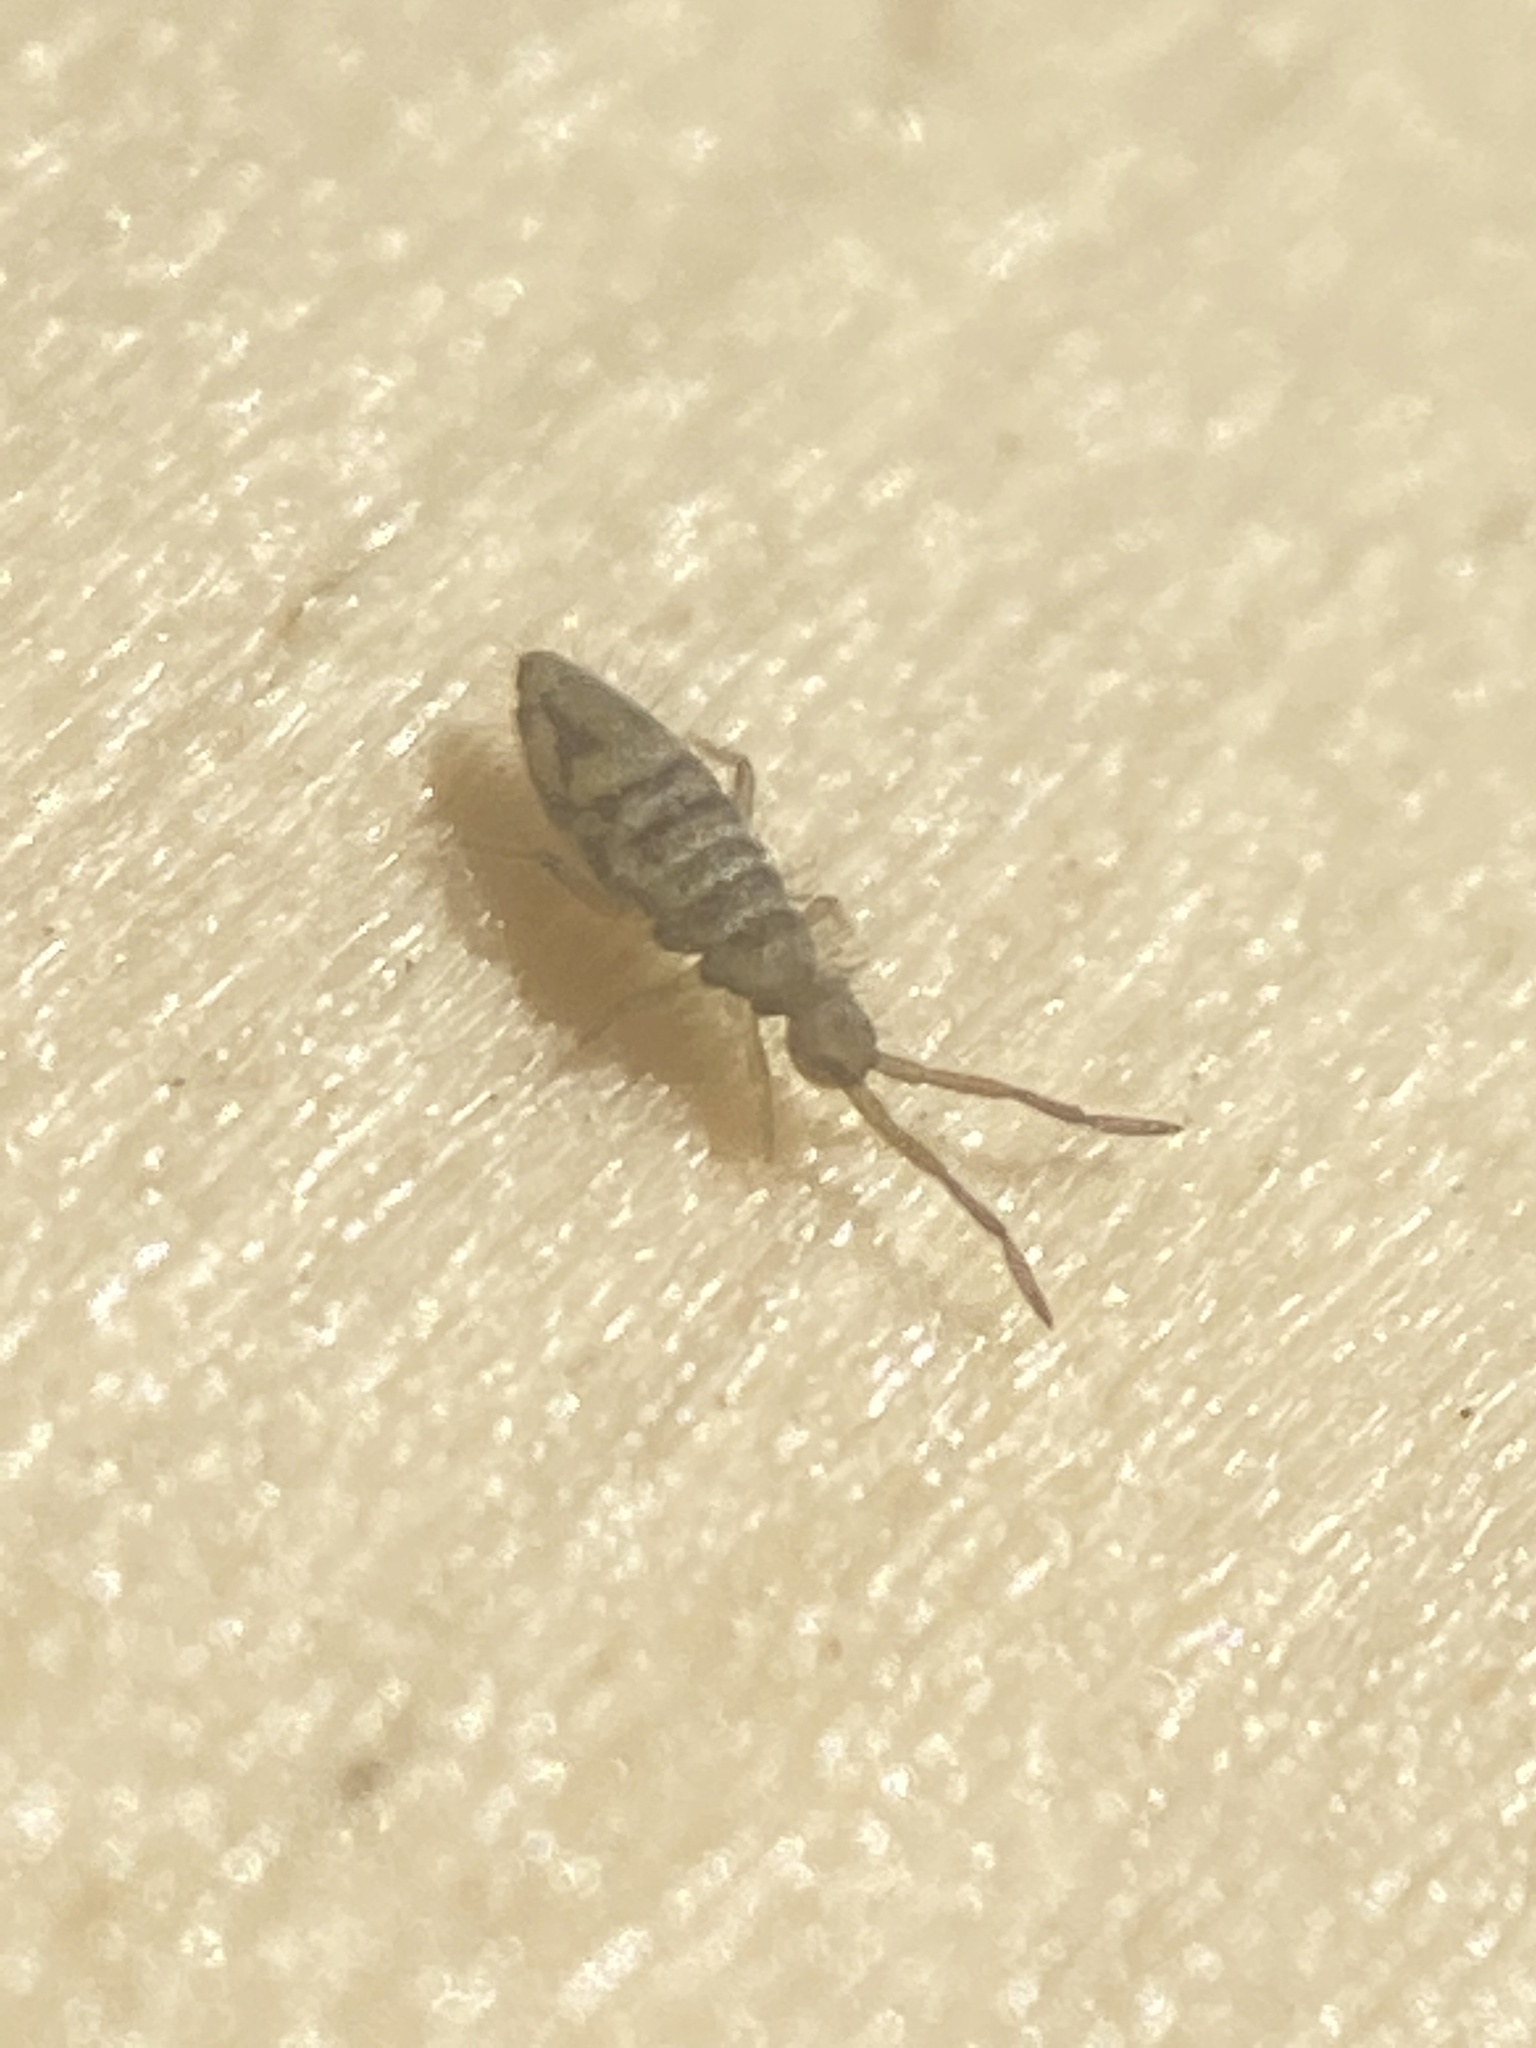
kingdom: Animalia
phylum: Arthropoda
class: Collembola
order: Entomobryomorpha
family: Entomobryidae
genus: Entomobrya
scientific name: Entomobrya nivalis
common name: Cosmopolitan springtail
